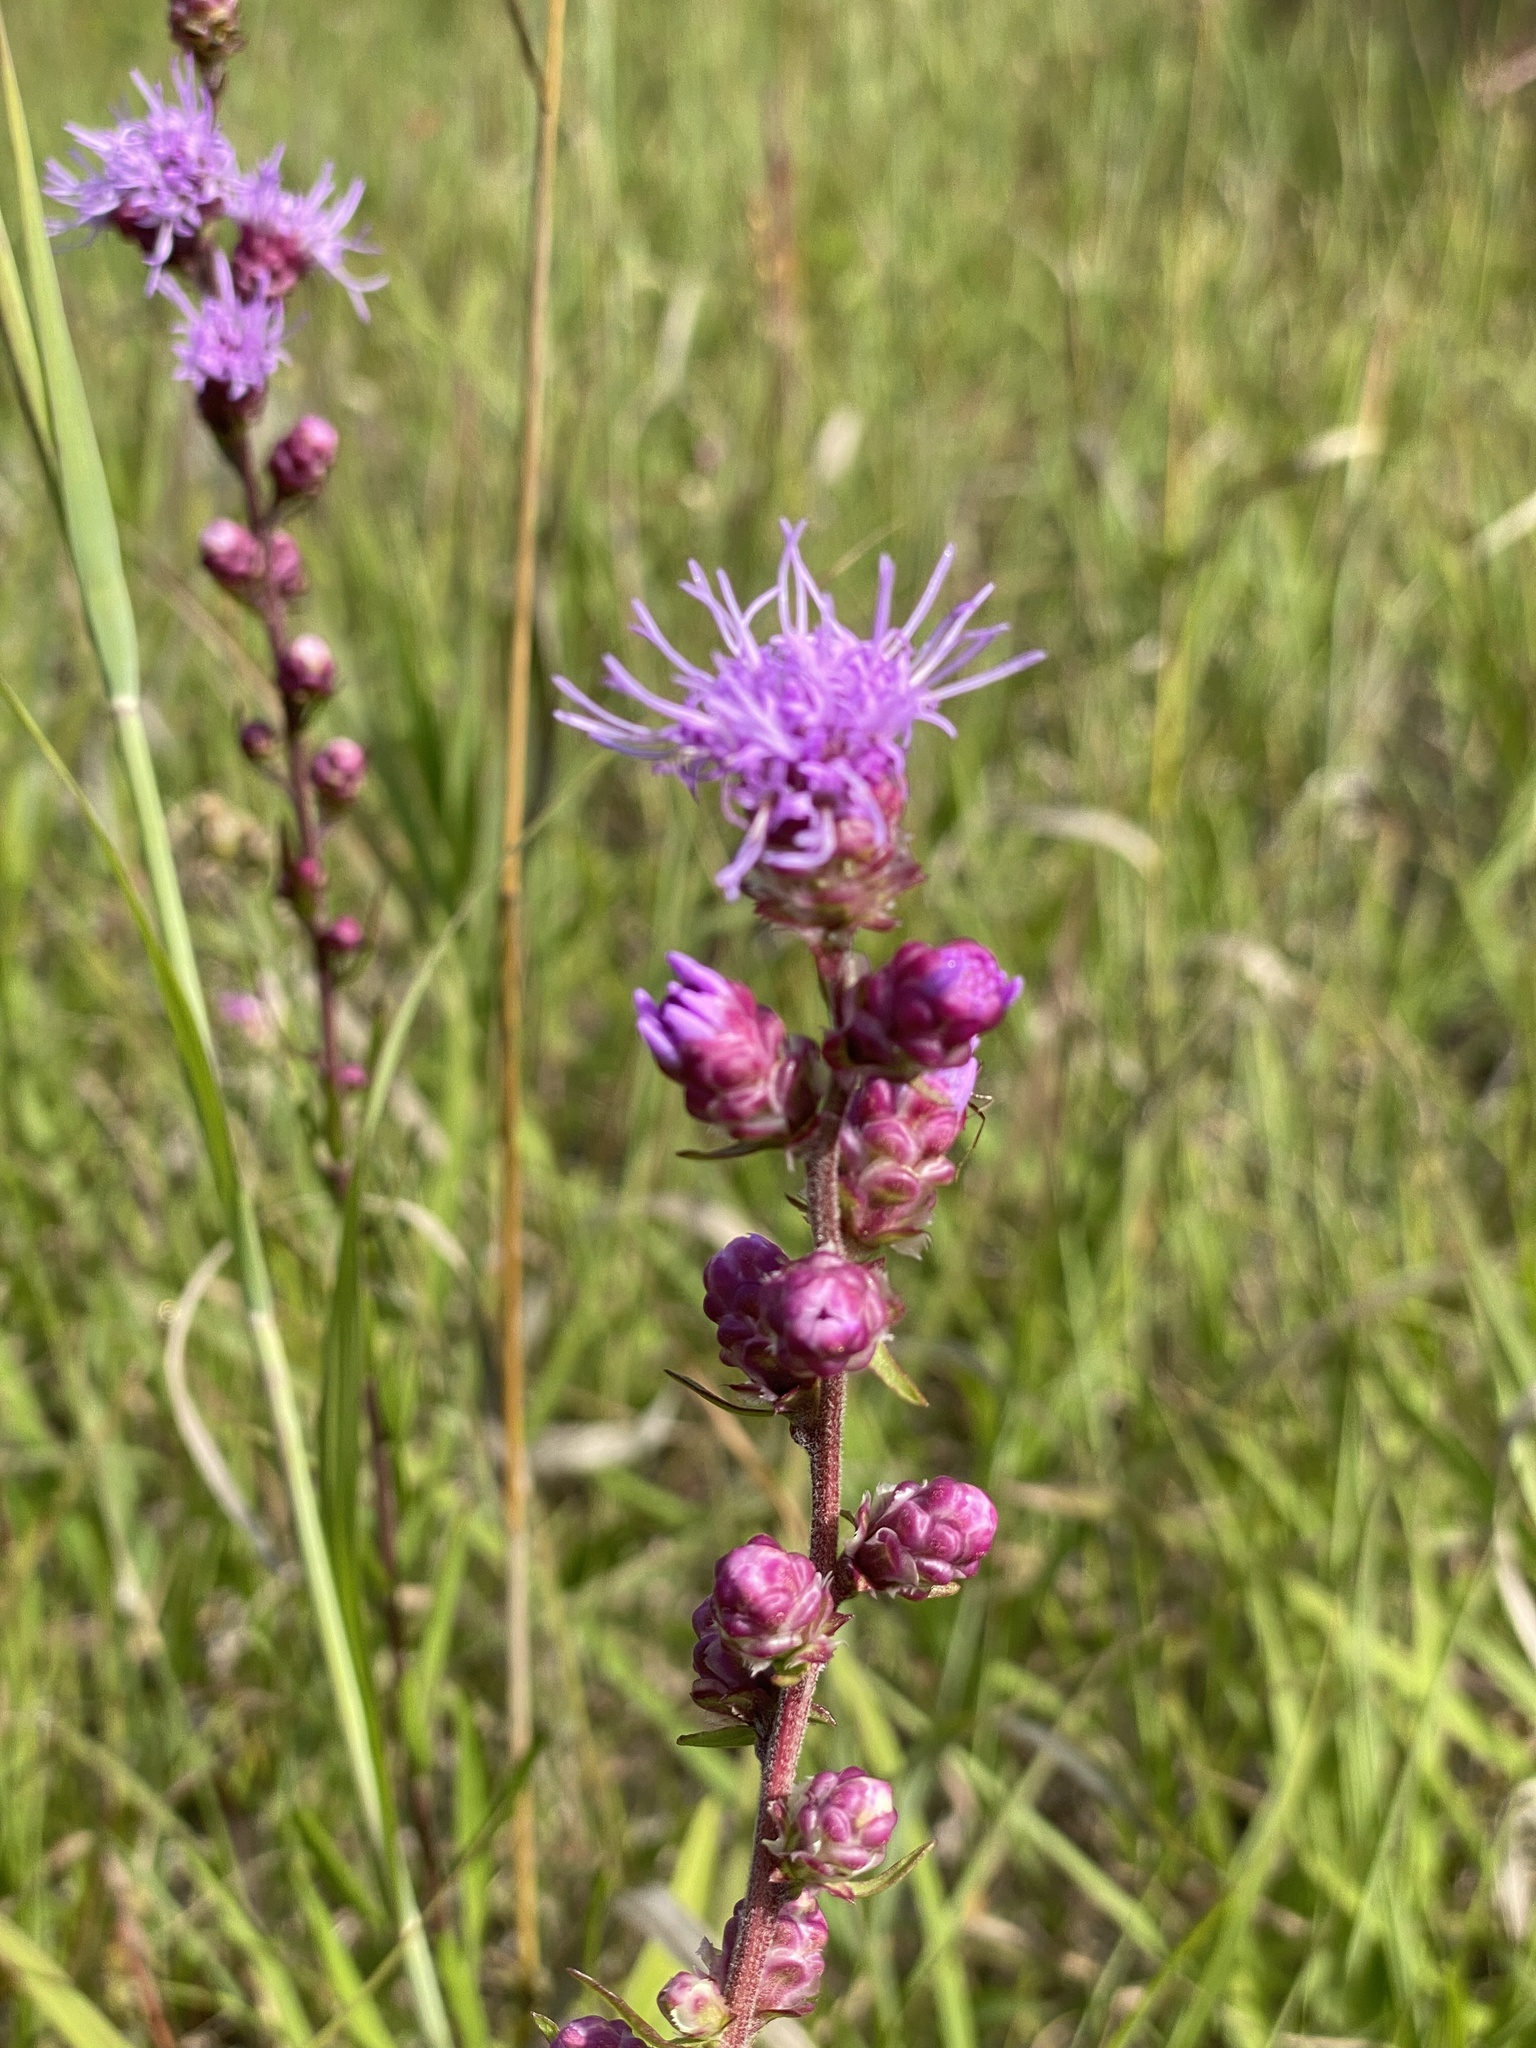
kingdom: Plantae
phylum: Tracheophyta
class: Magnoliopsida
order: Asterales
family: Asteraceae
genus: Liatris
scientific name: Liatris aspera
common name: Lacerate blazing-star
